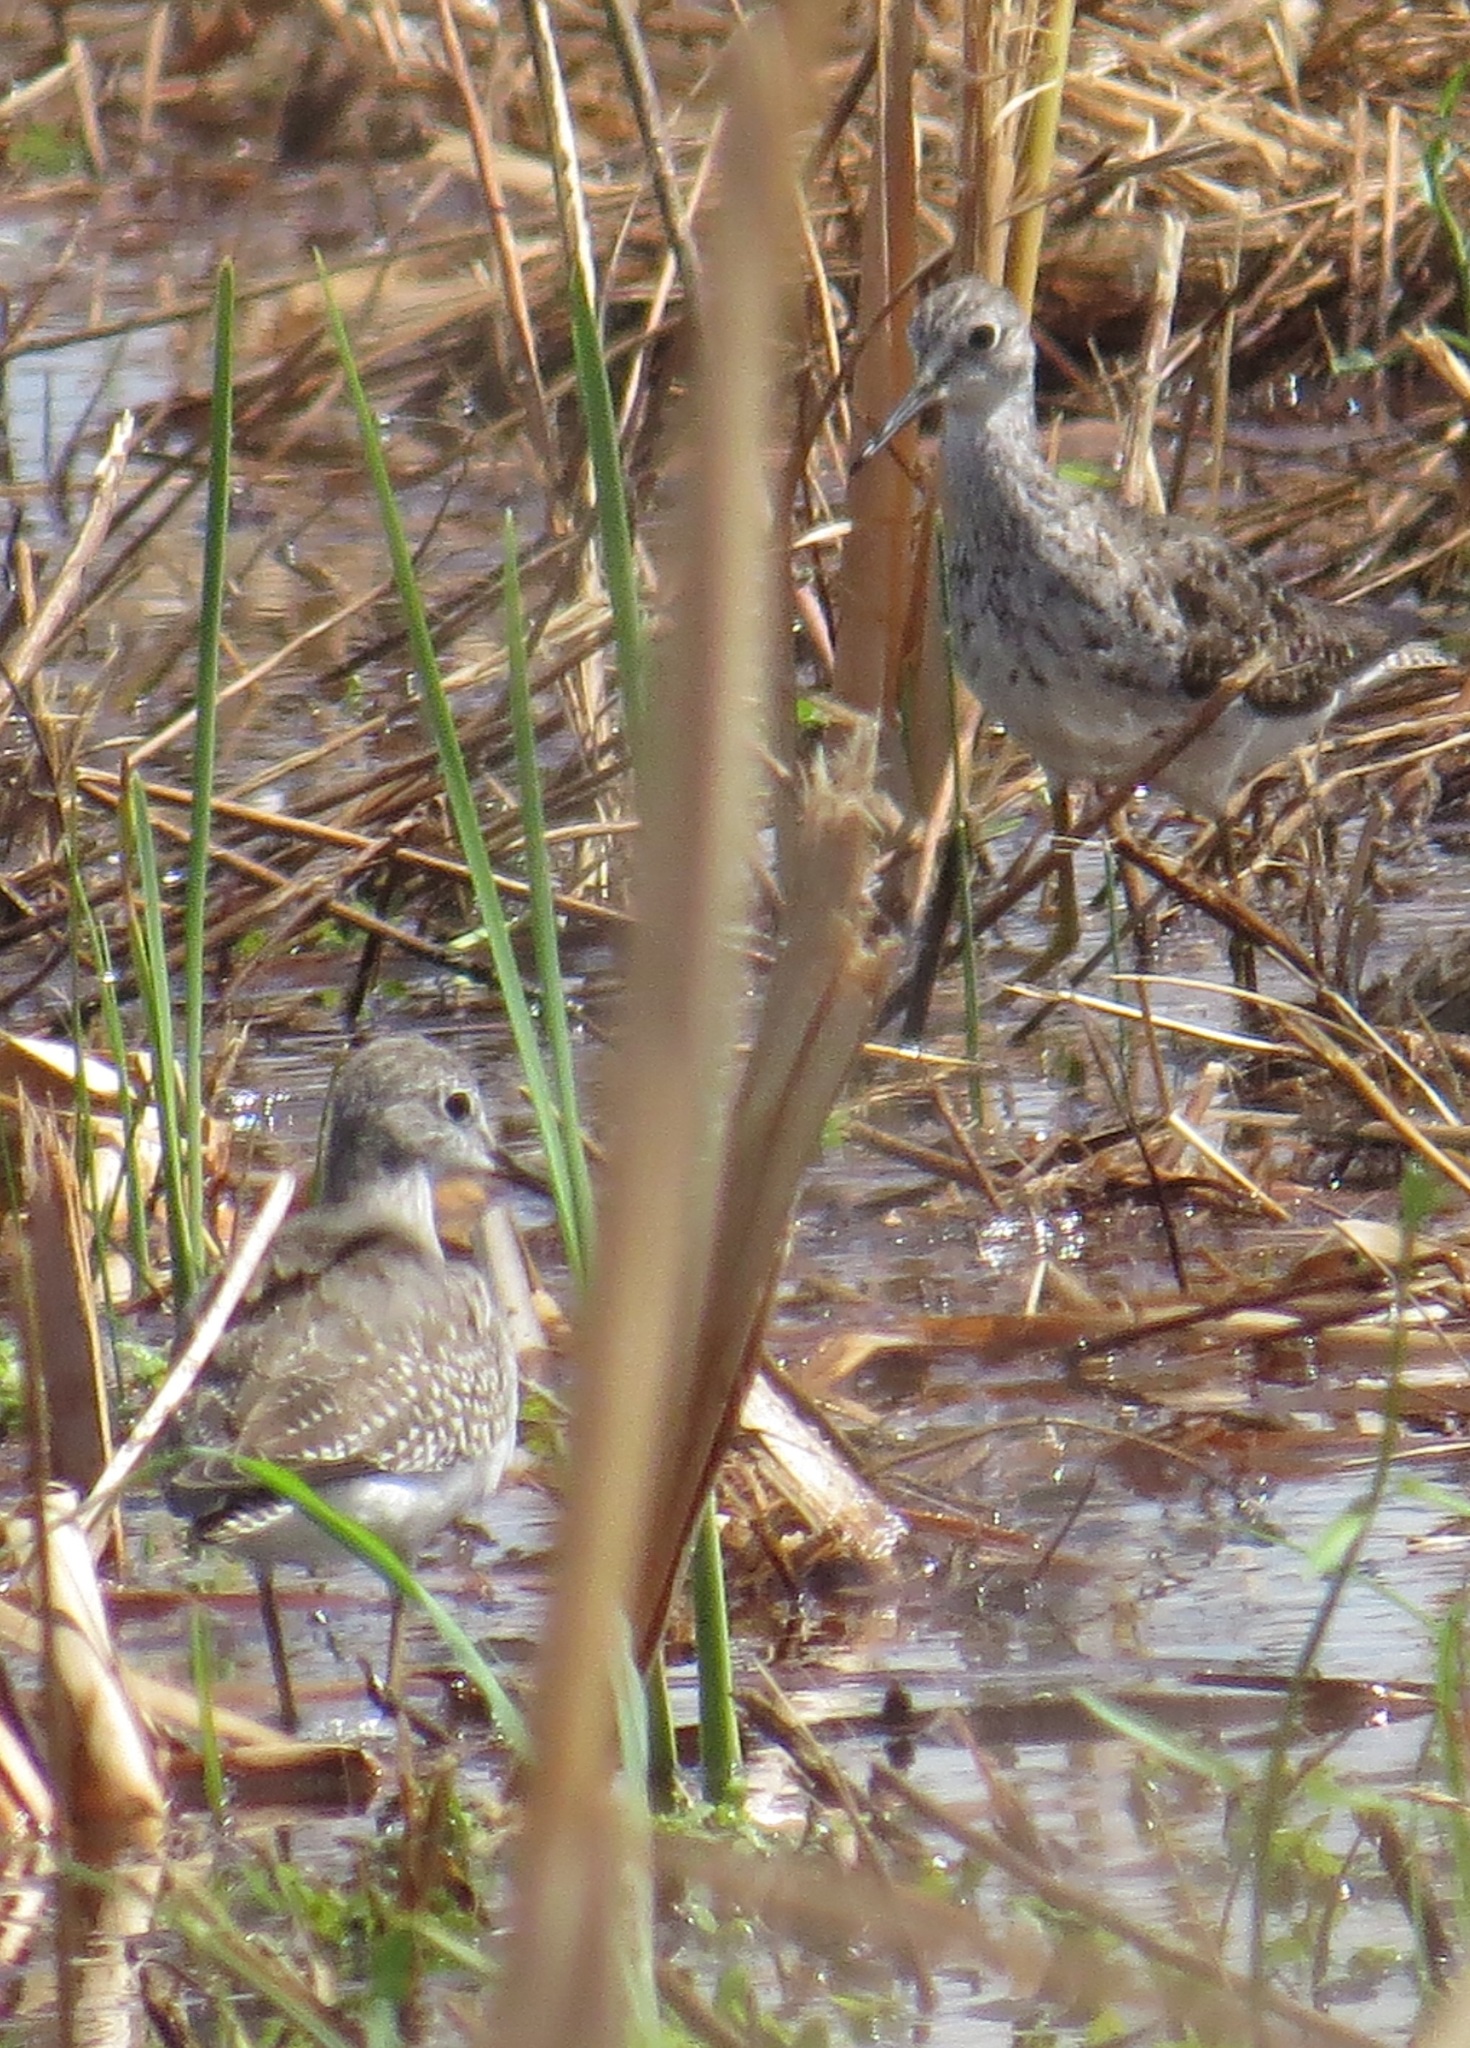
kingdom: Animalia
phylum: Chordata
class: Aves
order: Charadriiformes
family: Scolopacidae
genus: Tringa
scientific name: Tringa flavipes
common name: Lesser yellowlegs
